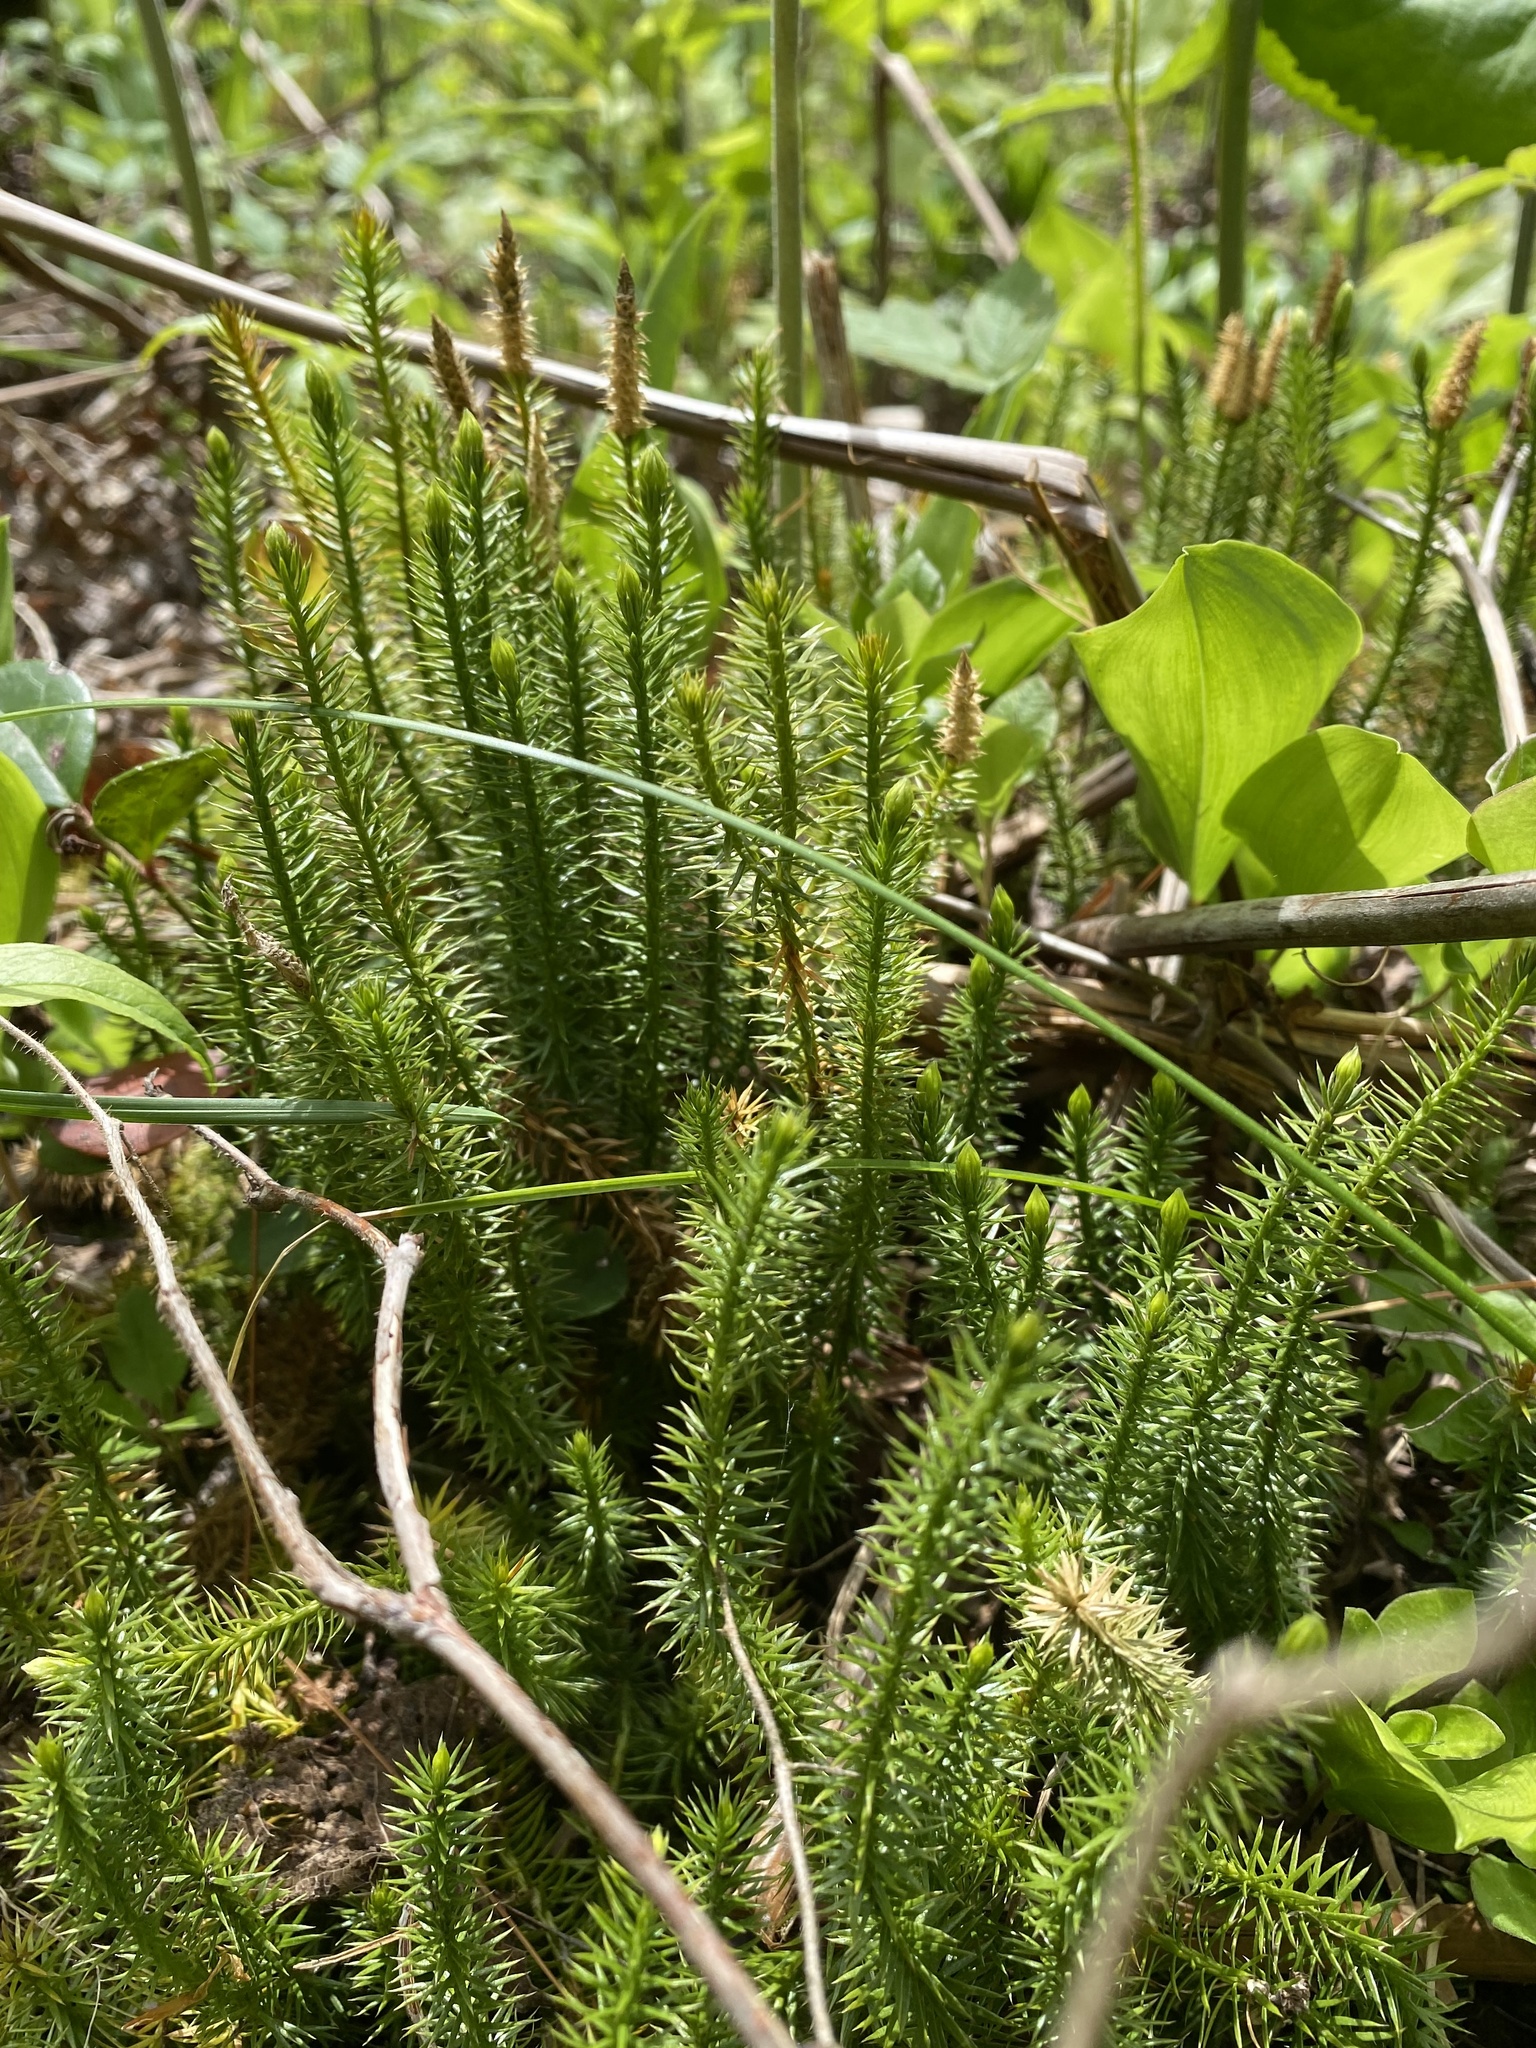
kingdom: Plantae
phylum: Tracheophyta
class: Lycopodiopsida
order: Lycopodiales
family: Lycopodiaceae
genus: Spinulum
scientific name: Spinulum annotinum
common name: Interrupted club-moss
